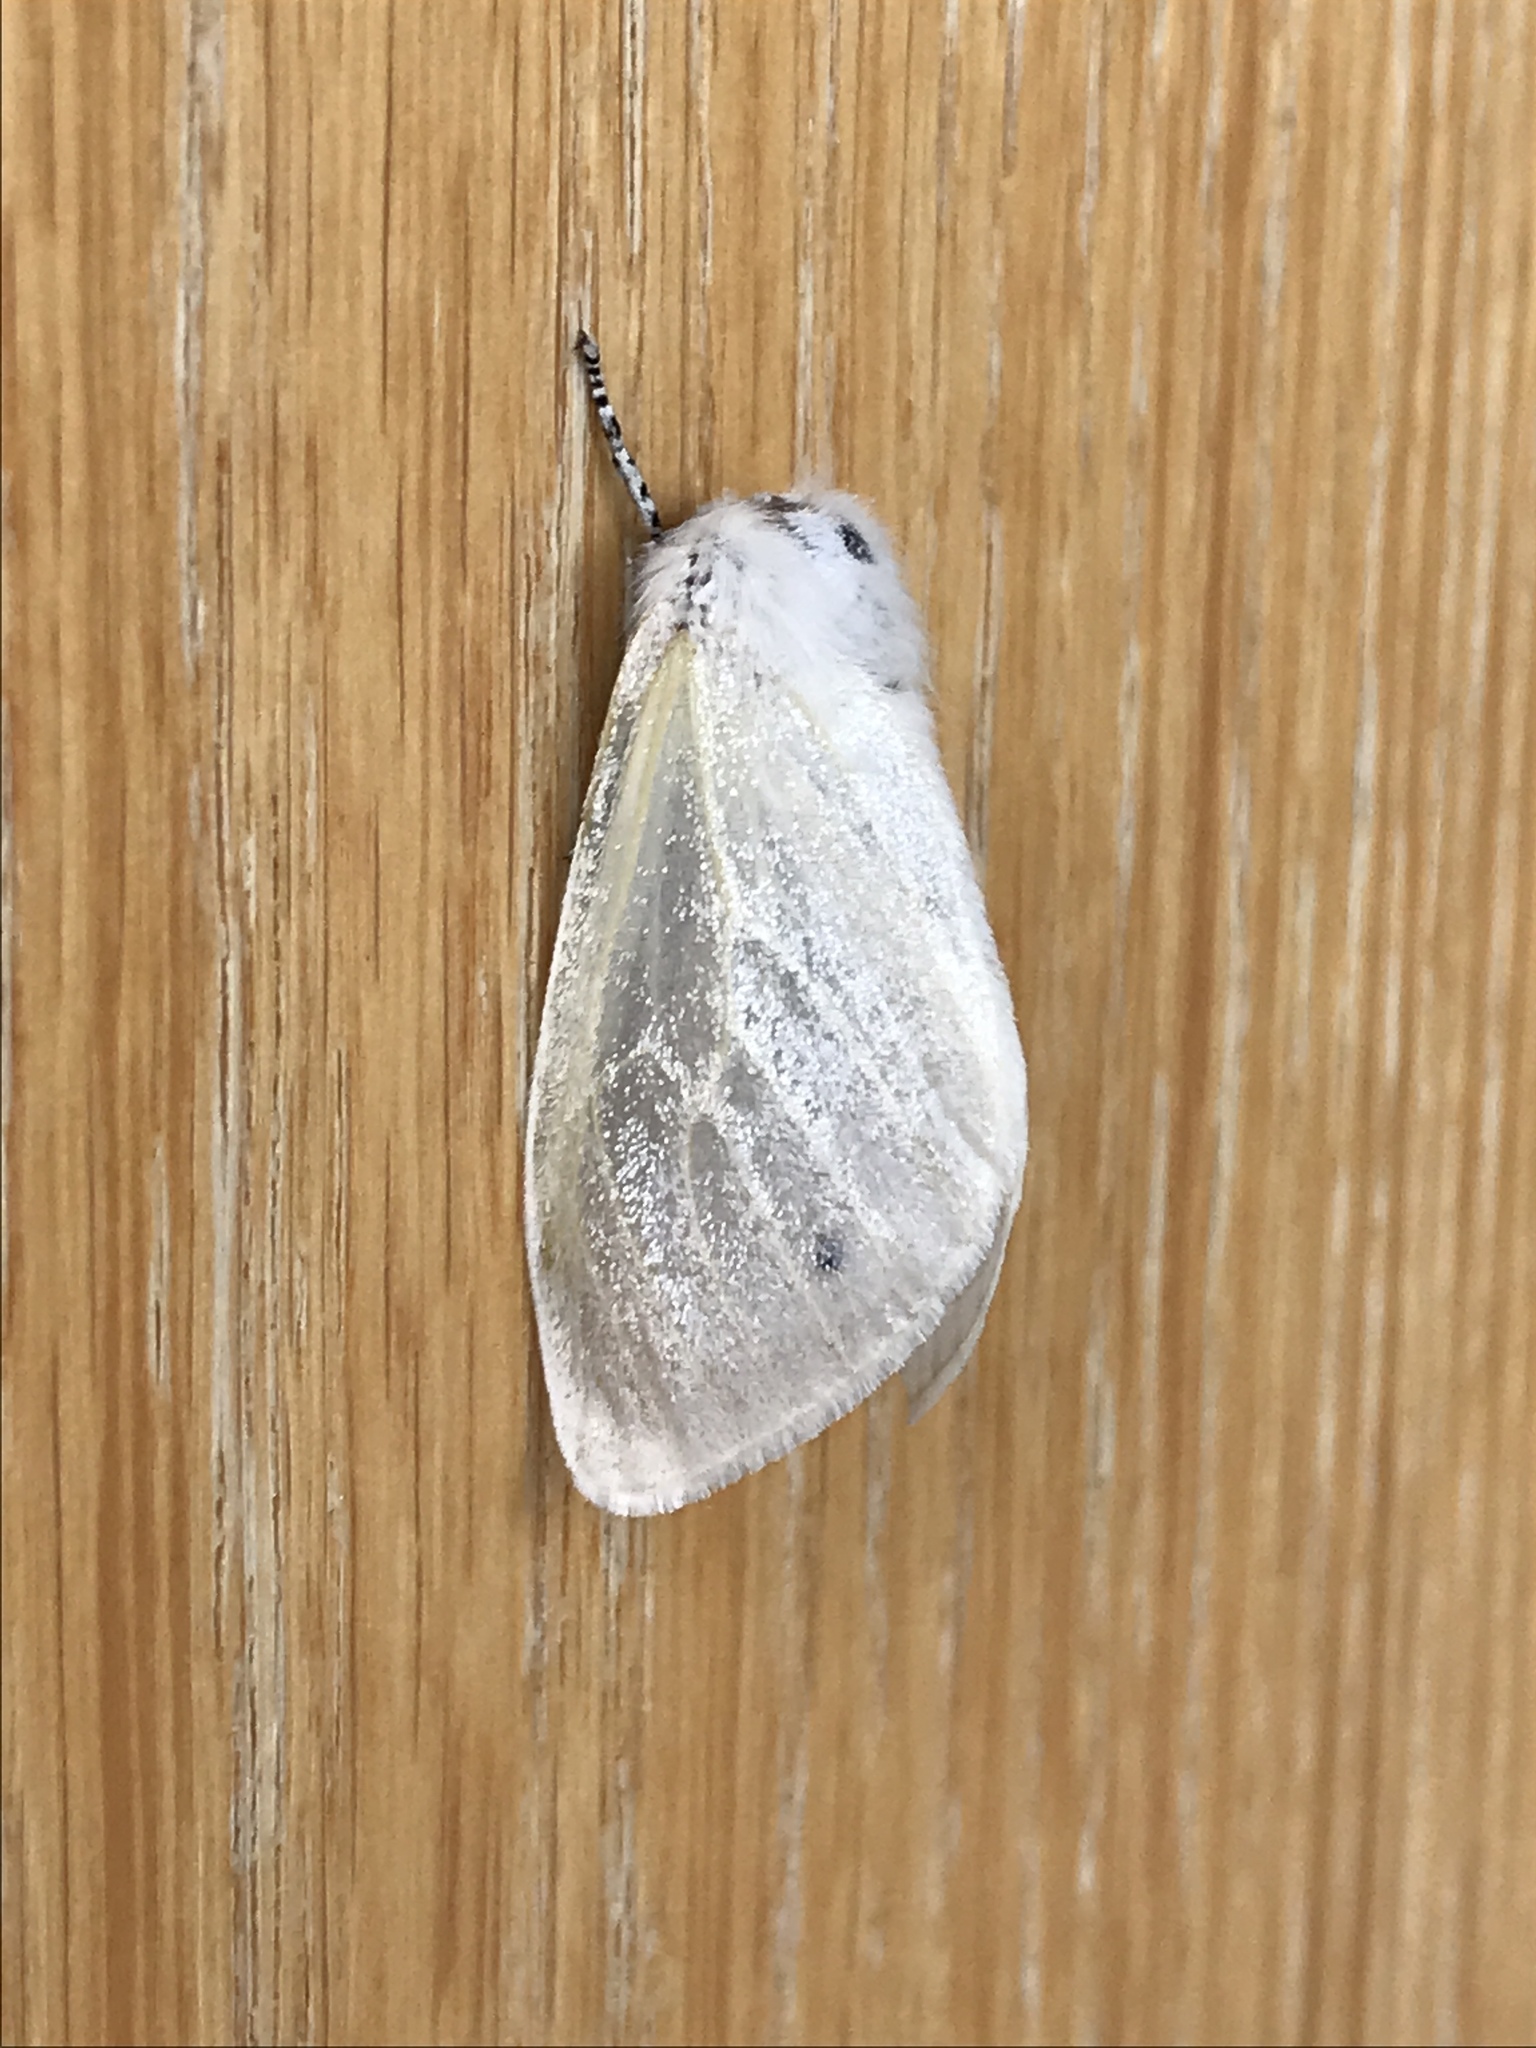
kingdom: Animalia
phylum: Arthropoda
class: Insecta
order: Lepidoptera
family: Erebidae
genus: Leucoma
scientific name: Leucoma salicis
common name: White satin moth
